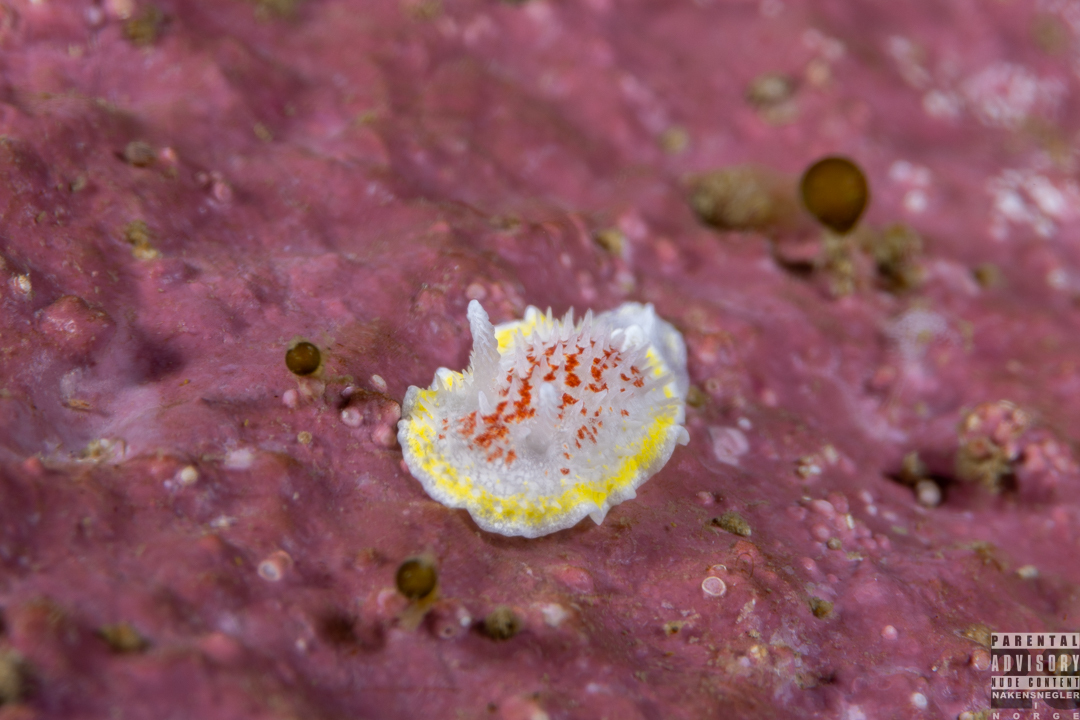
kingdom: Animalia
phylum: Mollusca
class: Gastropoda
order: Nudibranchia
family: Calycidorididae
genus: Diaphorodoris
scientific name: Diaphorodoris luteocincta
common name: Fried egg nudibranch
